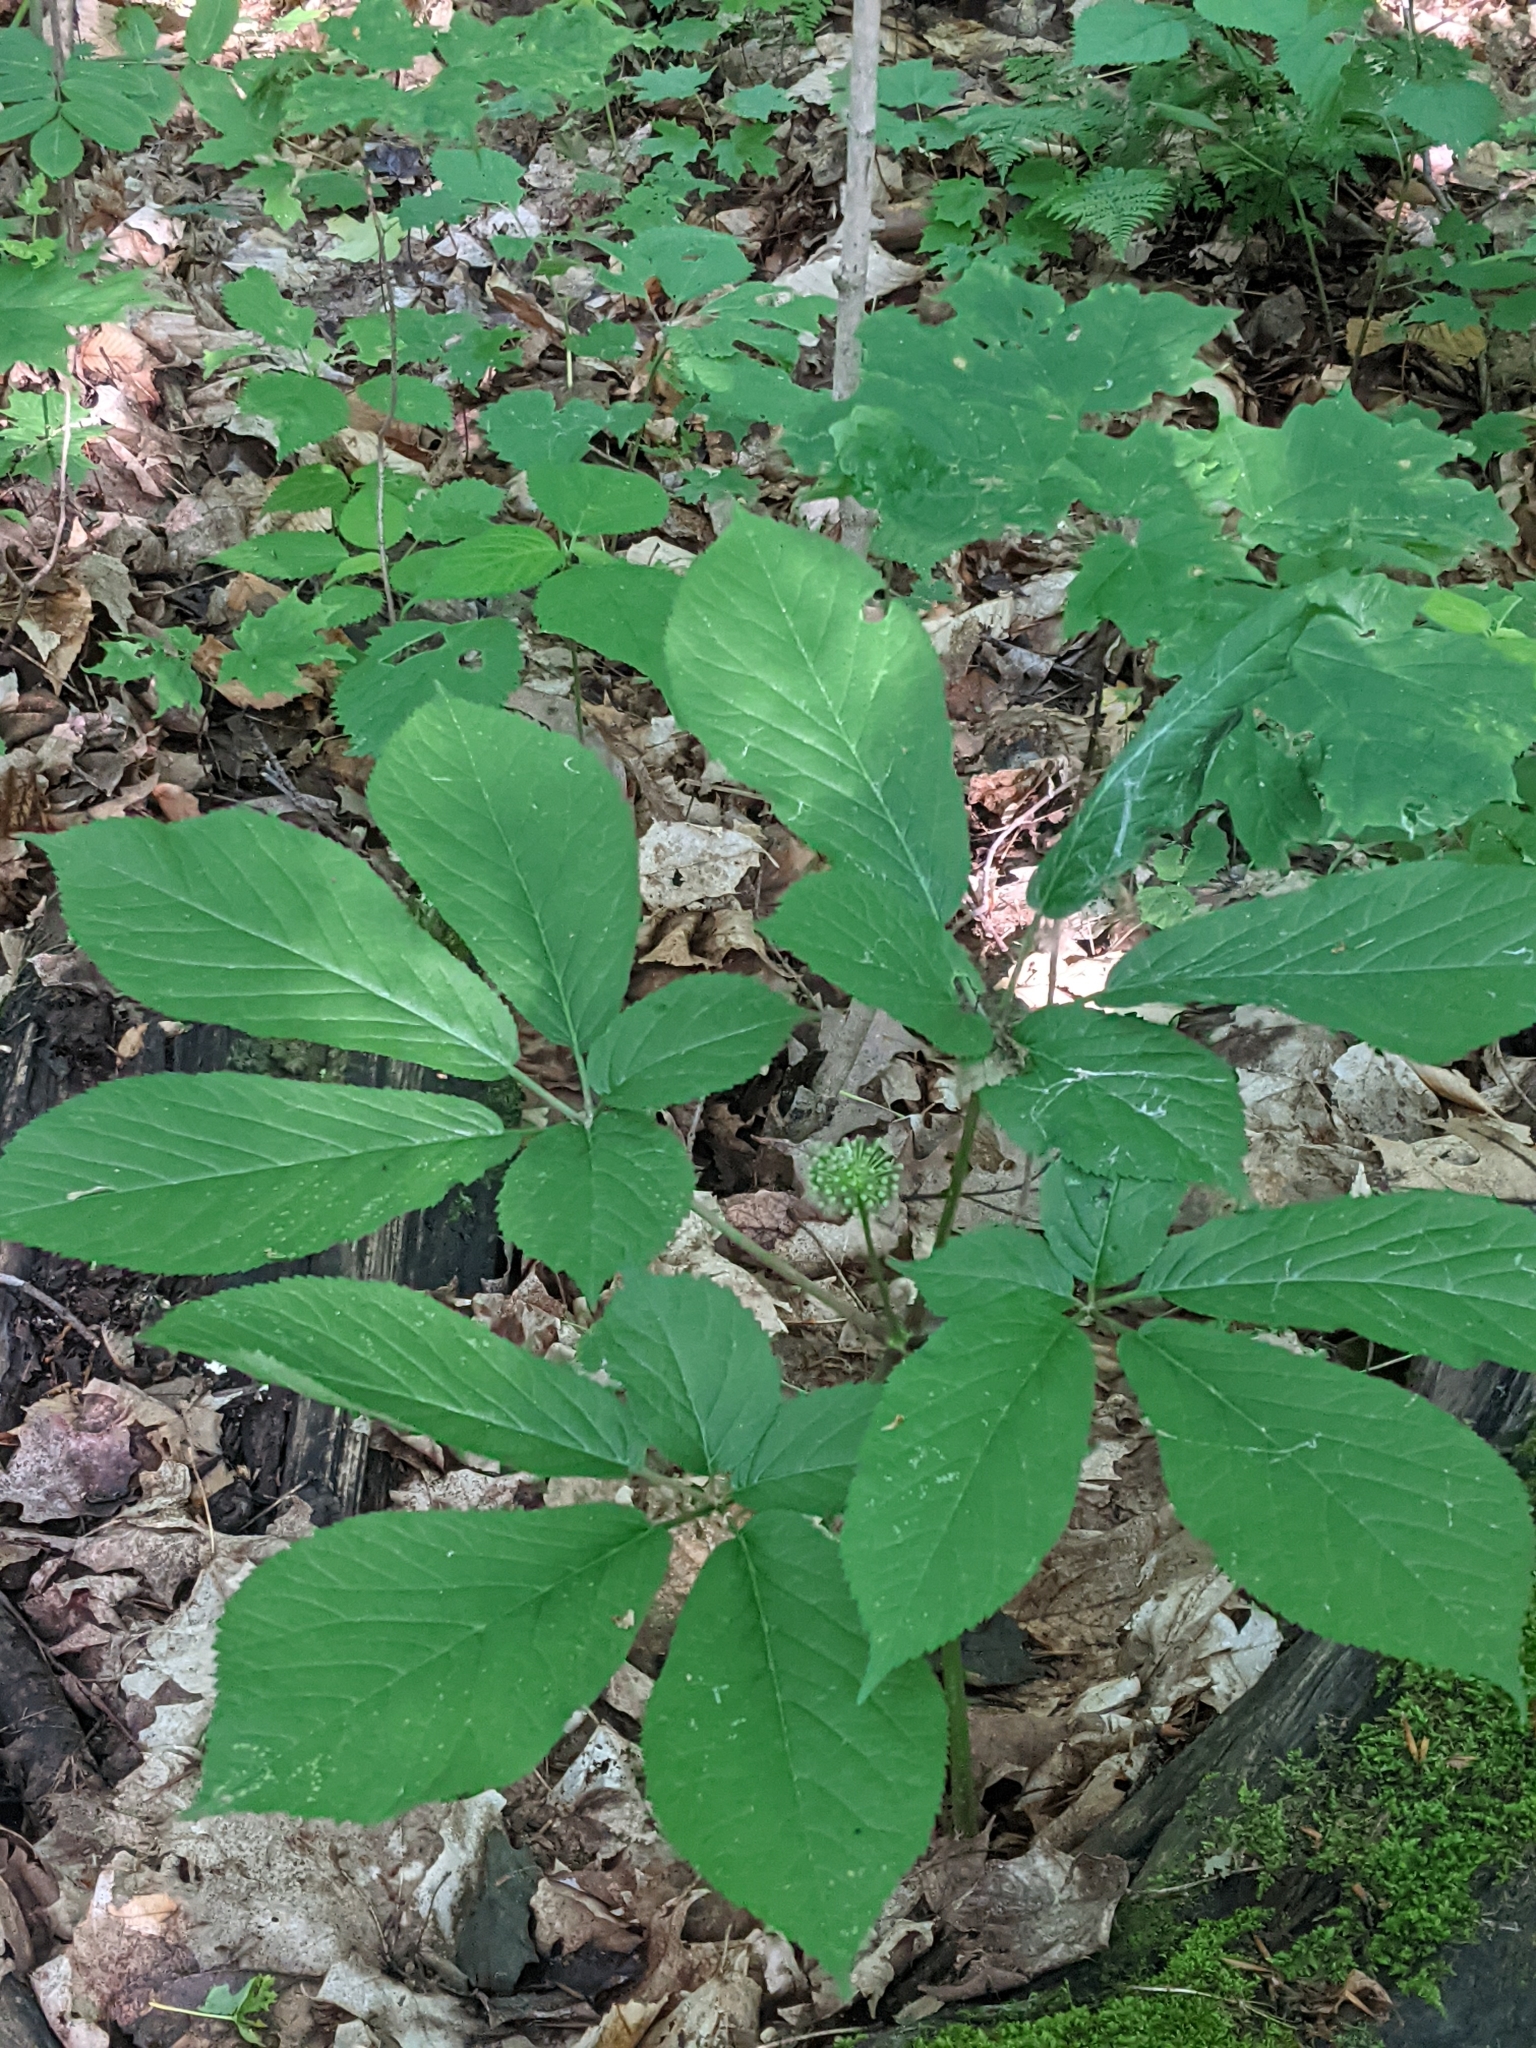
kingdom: Plantae
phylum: Tracheophyta
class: Magnoliopsida
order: Apiales
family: Araliaceae
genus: Panax
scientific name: Panax quinquefolius
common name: American ginseng
